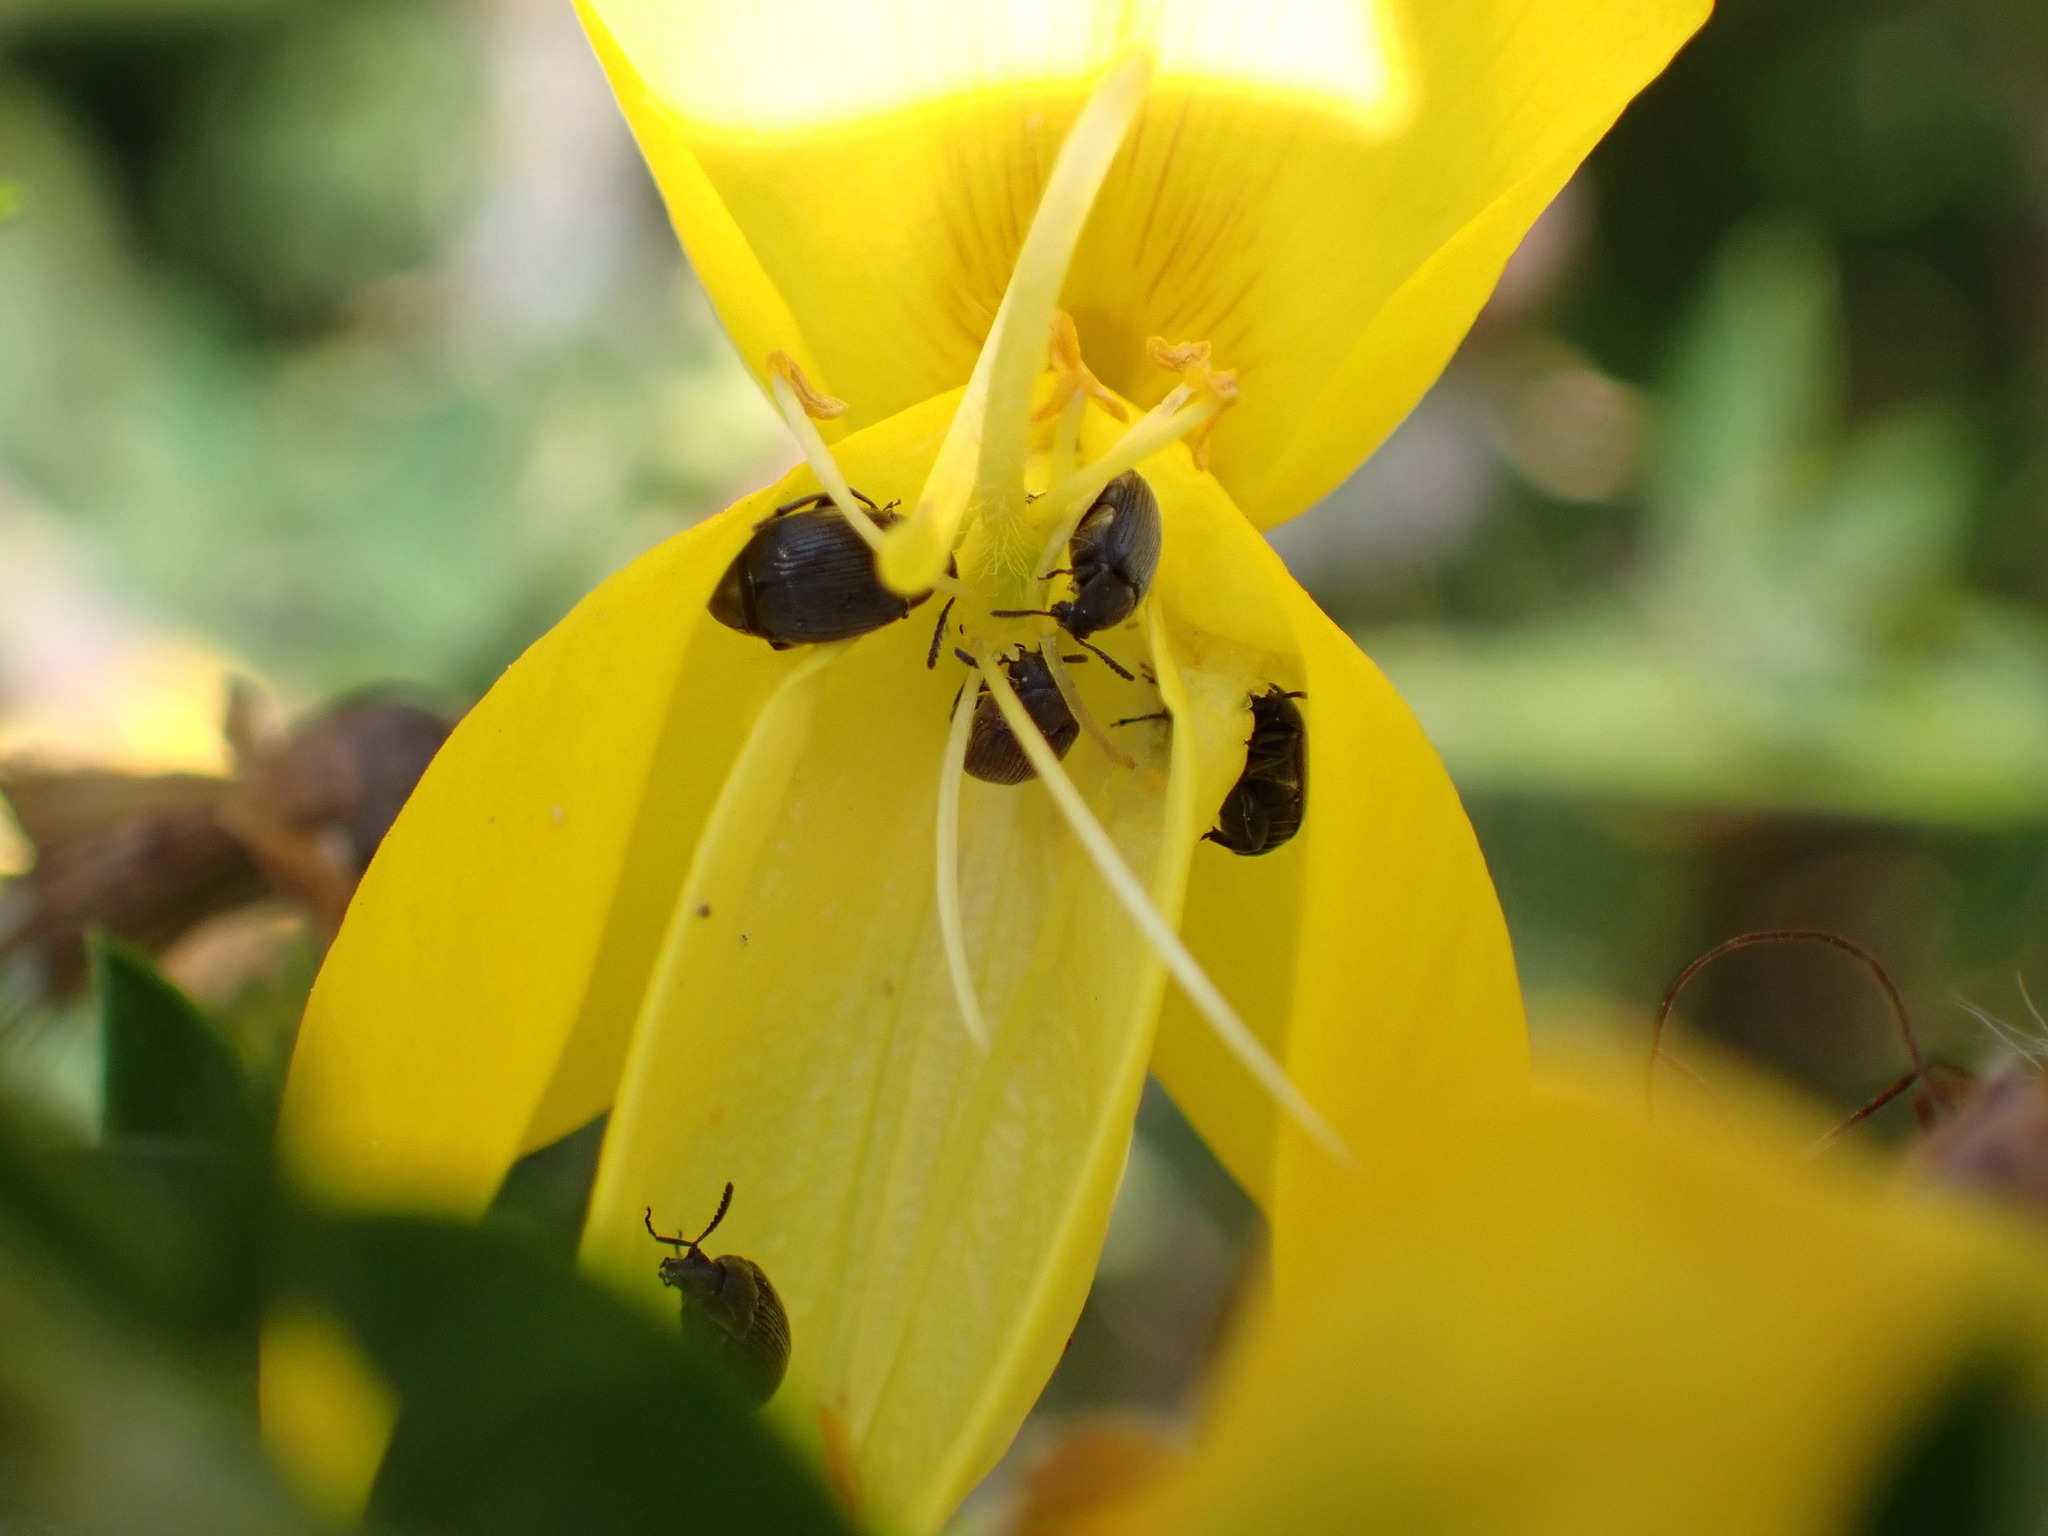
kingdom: Animalia
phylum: Arthropoda
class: Insecta
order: Coleoptera
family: Chrysomelidae
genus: Bruchidius
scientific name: Bruchidius villosus
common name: Scotch broom bruchid
